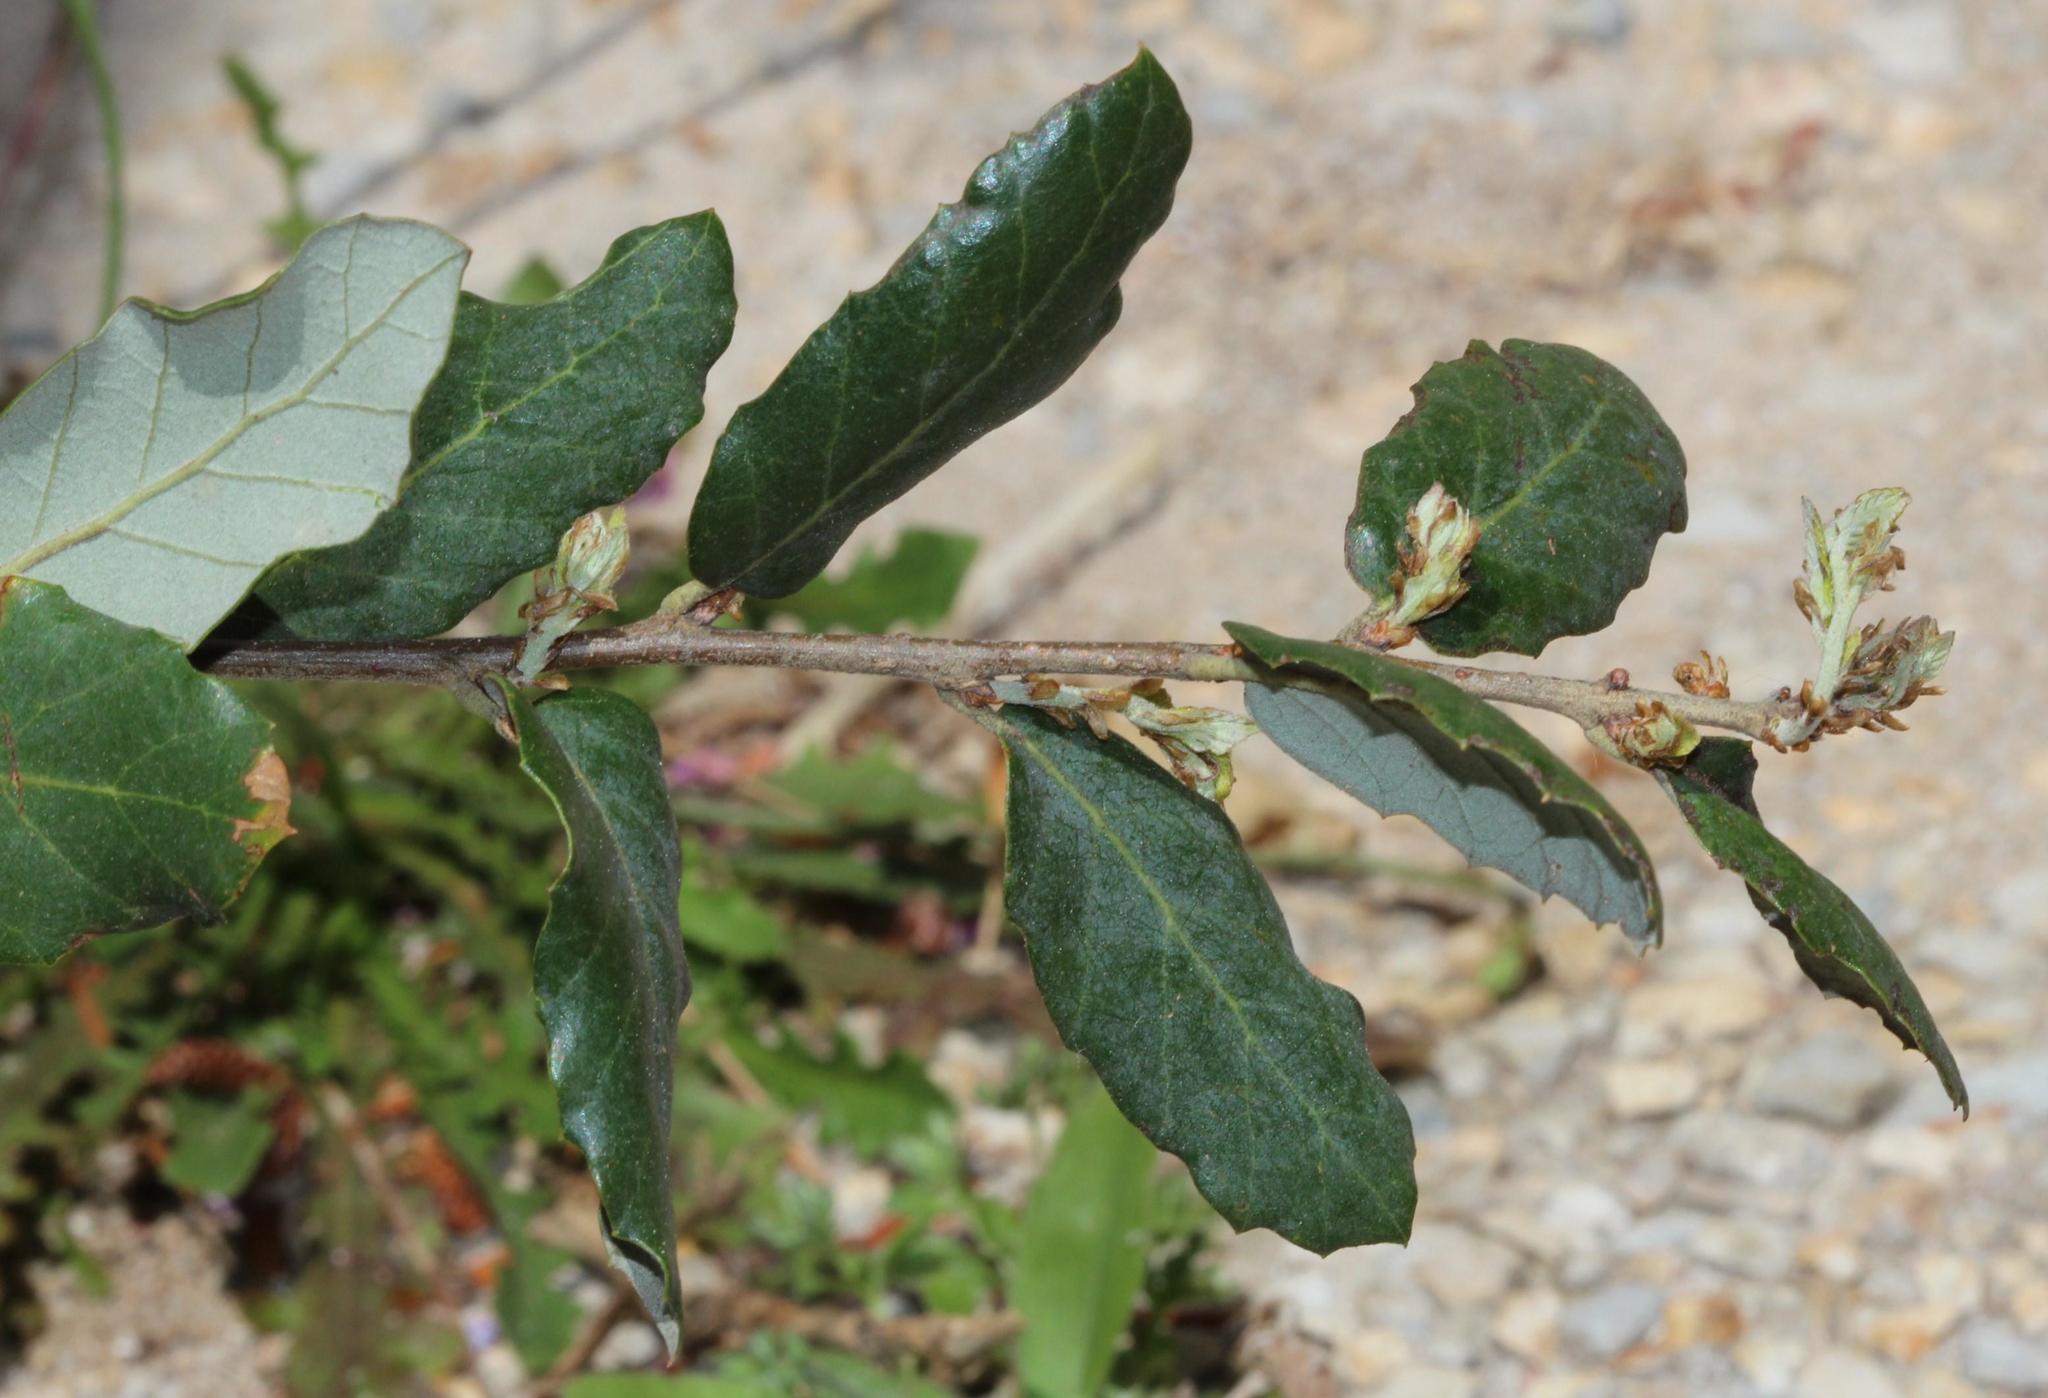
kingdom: Plantae
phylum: Tracheophyta
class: Magnoliopsida
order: Fagales
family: Fagaceae
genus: Quercus
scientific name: Quercus suber
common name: Cork oak
